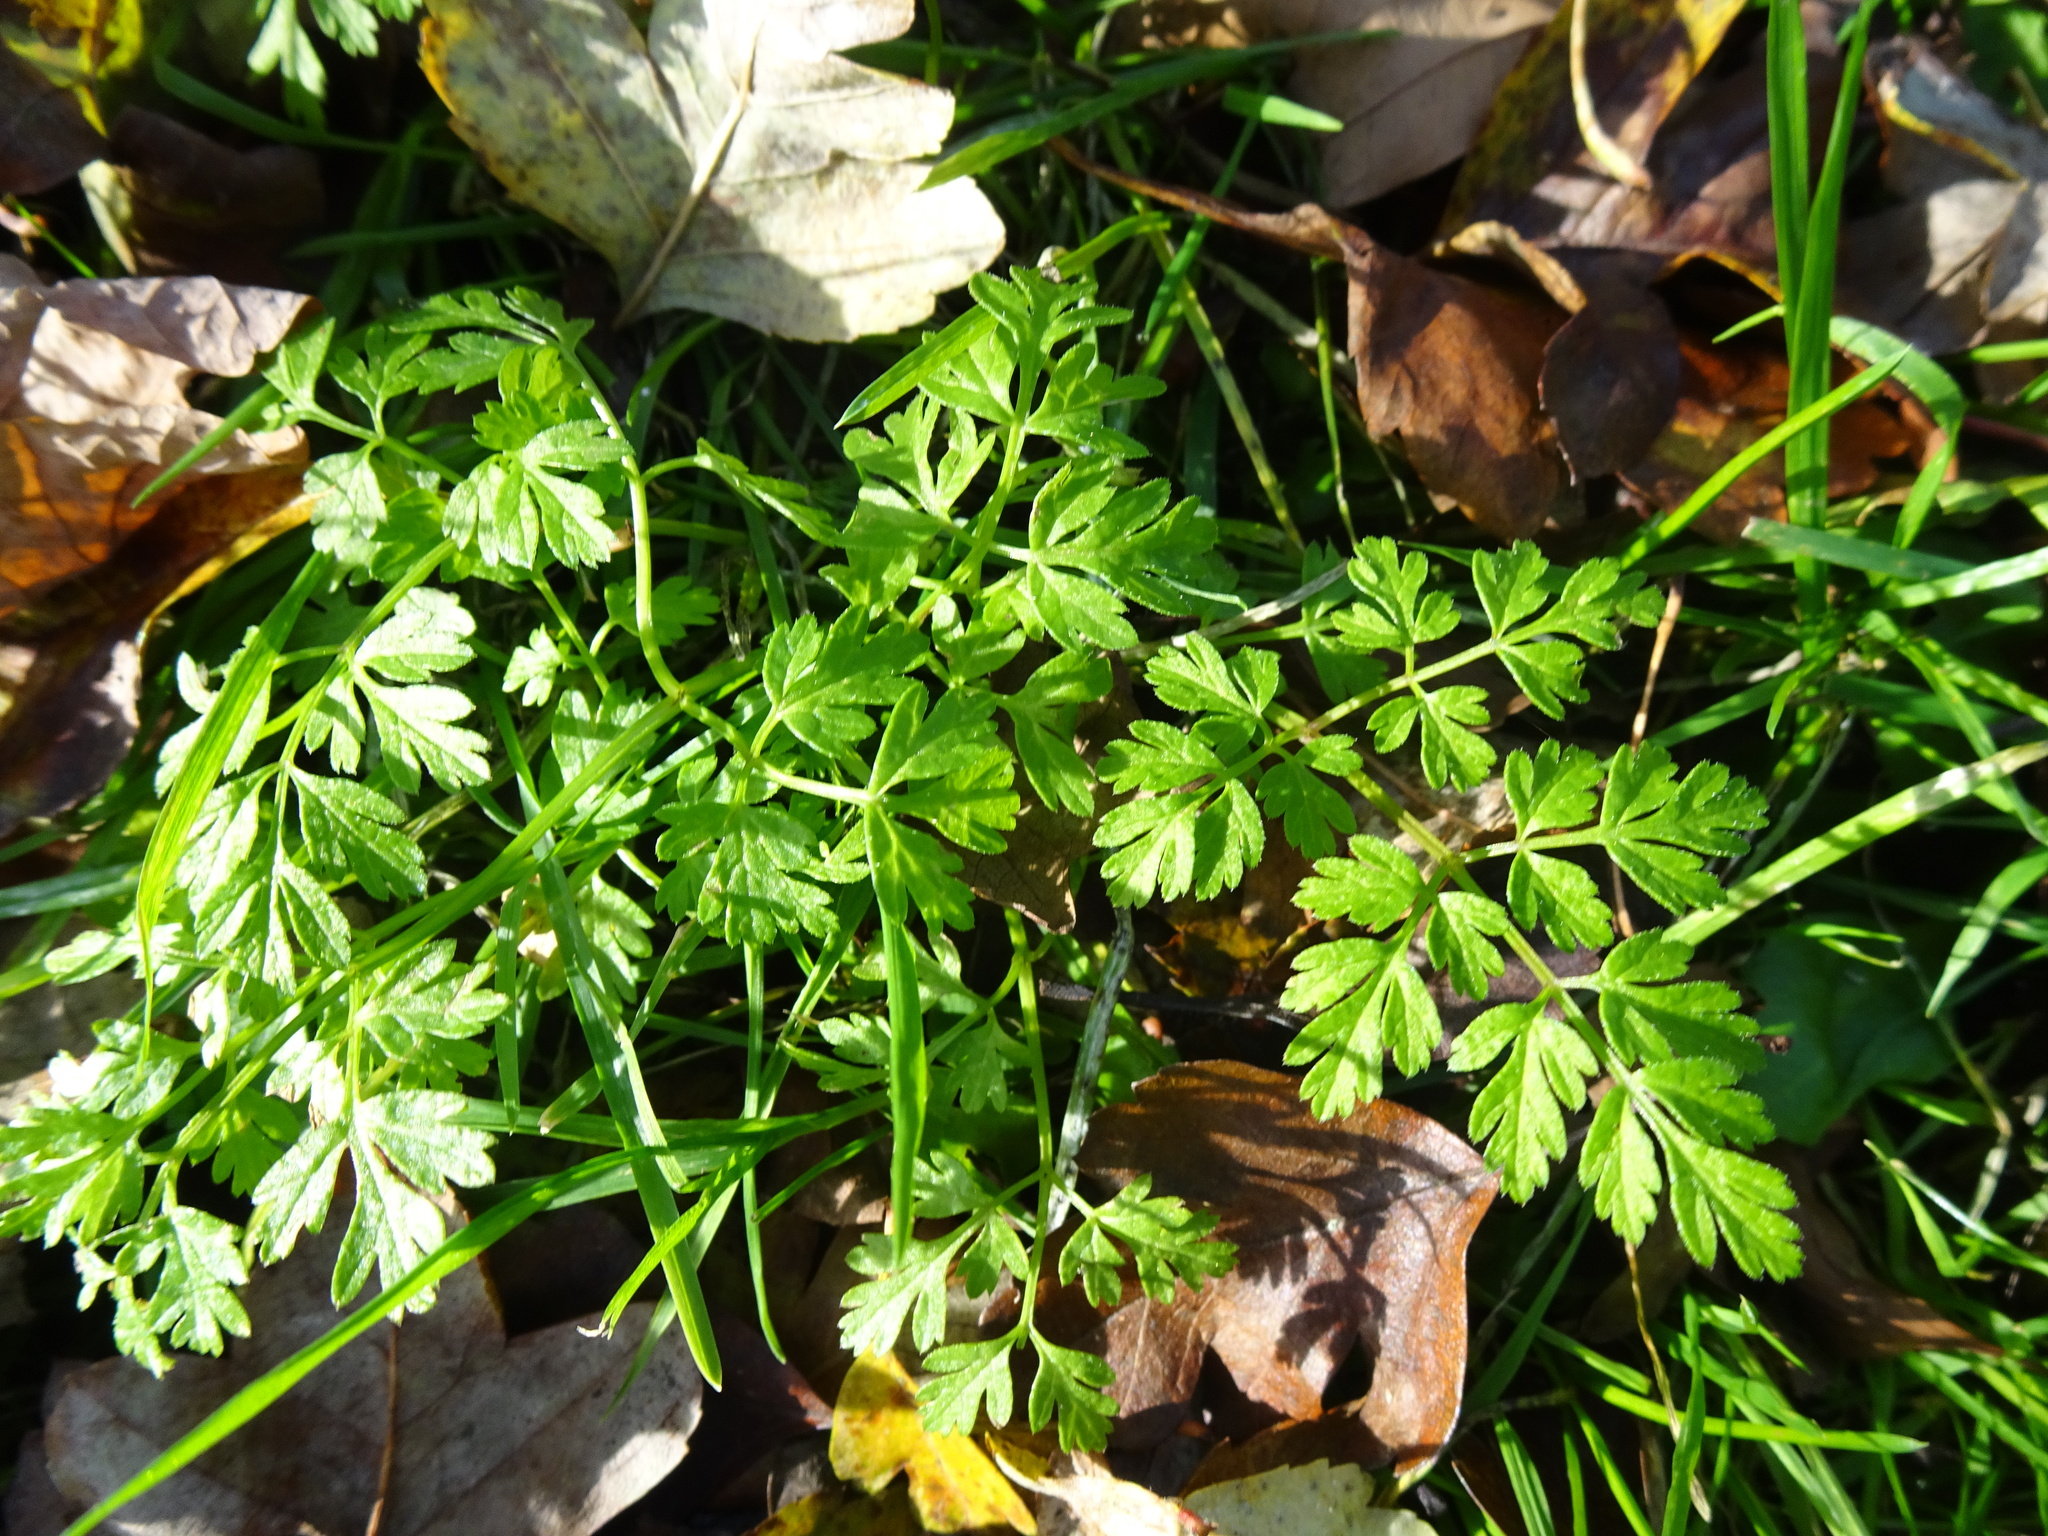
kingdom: Plantae
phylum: Tracheophyta
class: Magnoliopsida
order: Apiales
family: Apiaceae
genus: Anthriscus
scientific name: Anthriscus sylvestris
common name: Cow parsley
